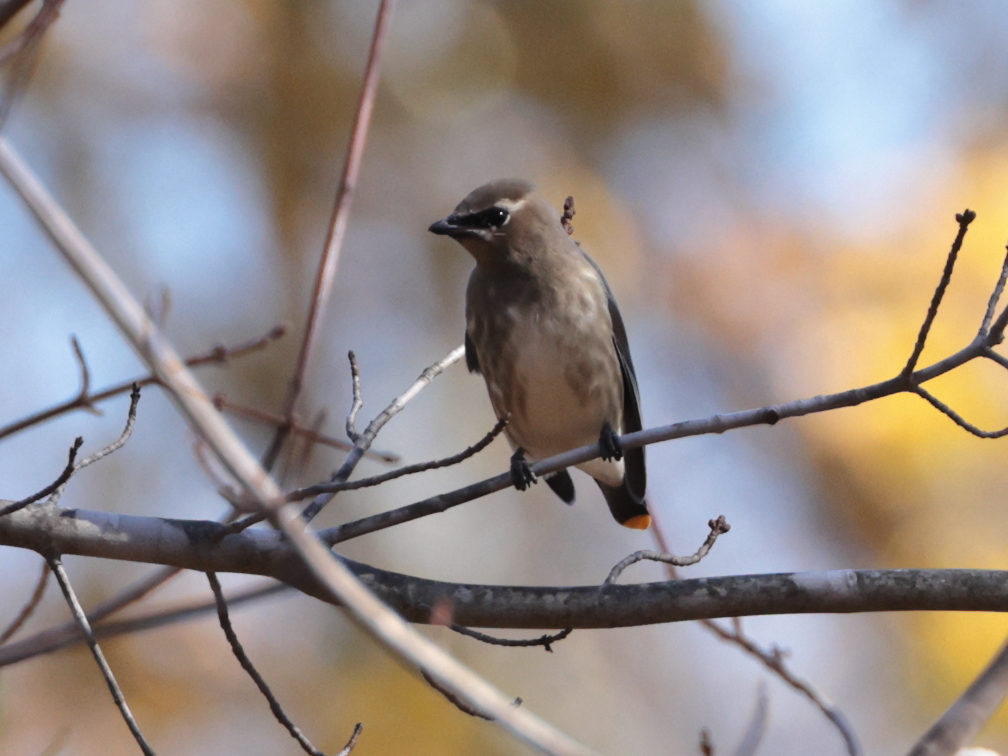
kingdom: Animalia
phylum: Chordata
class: Aves
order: Passeriformes
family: Bombycillidae
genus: Bombycilla
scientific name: Bombycilla cedrorum
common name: Cedar waxwing
